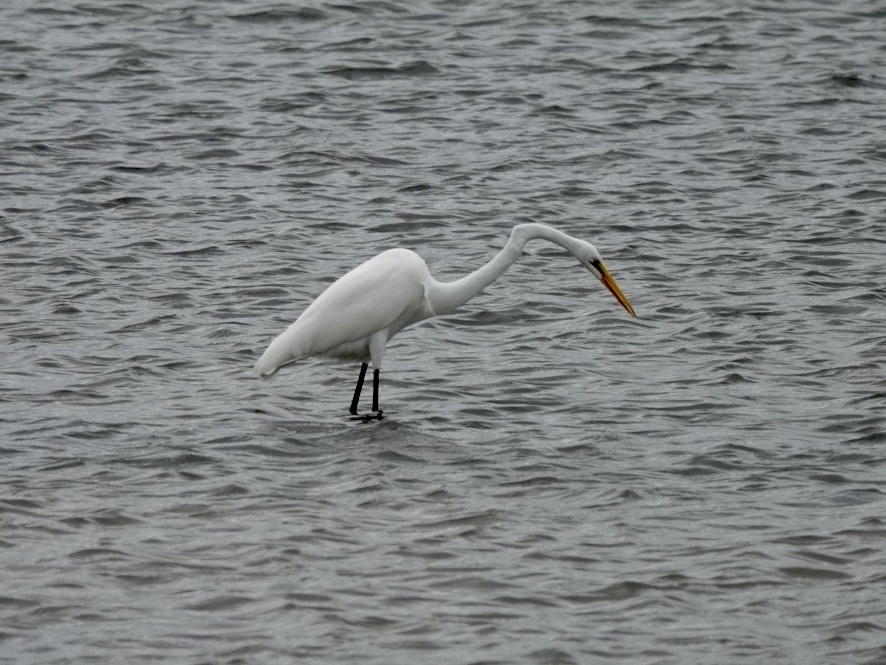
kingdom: Animalia
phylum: Chordata
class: Aves
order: Pelecaniformes
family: Ardeidae
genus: Ardea
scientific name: Ardea alba
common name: Great egret
